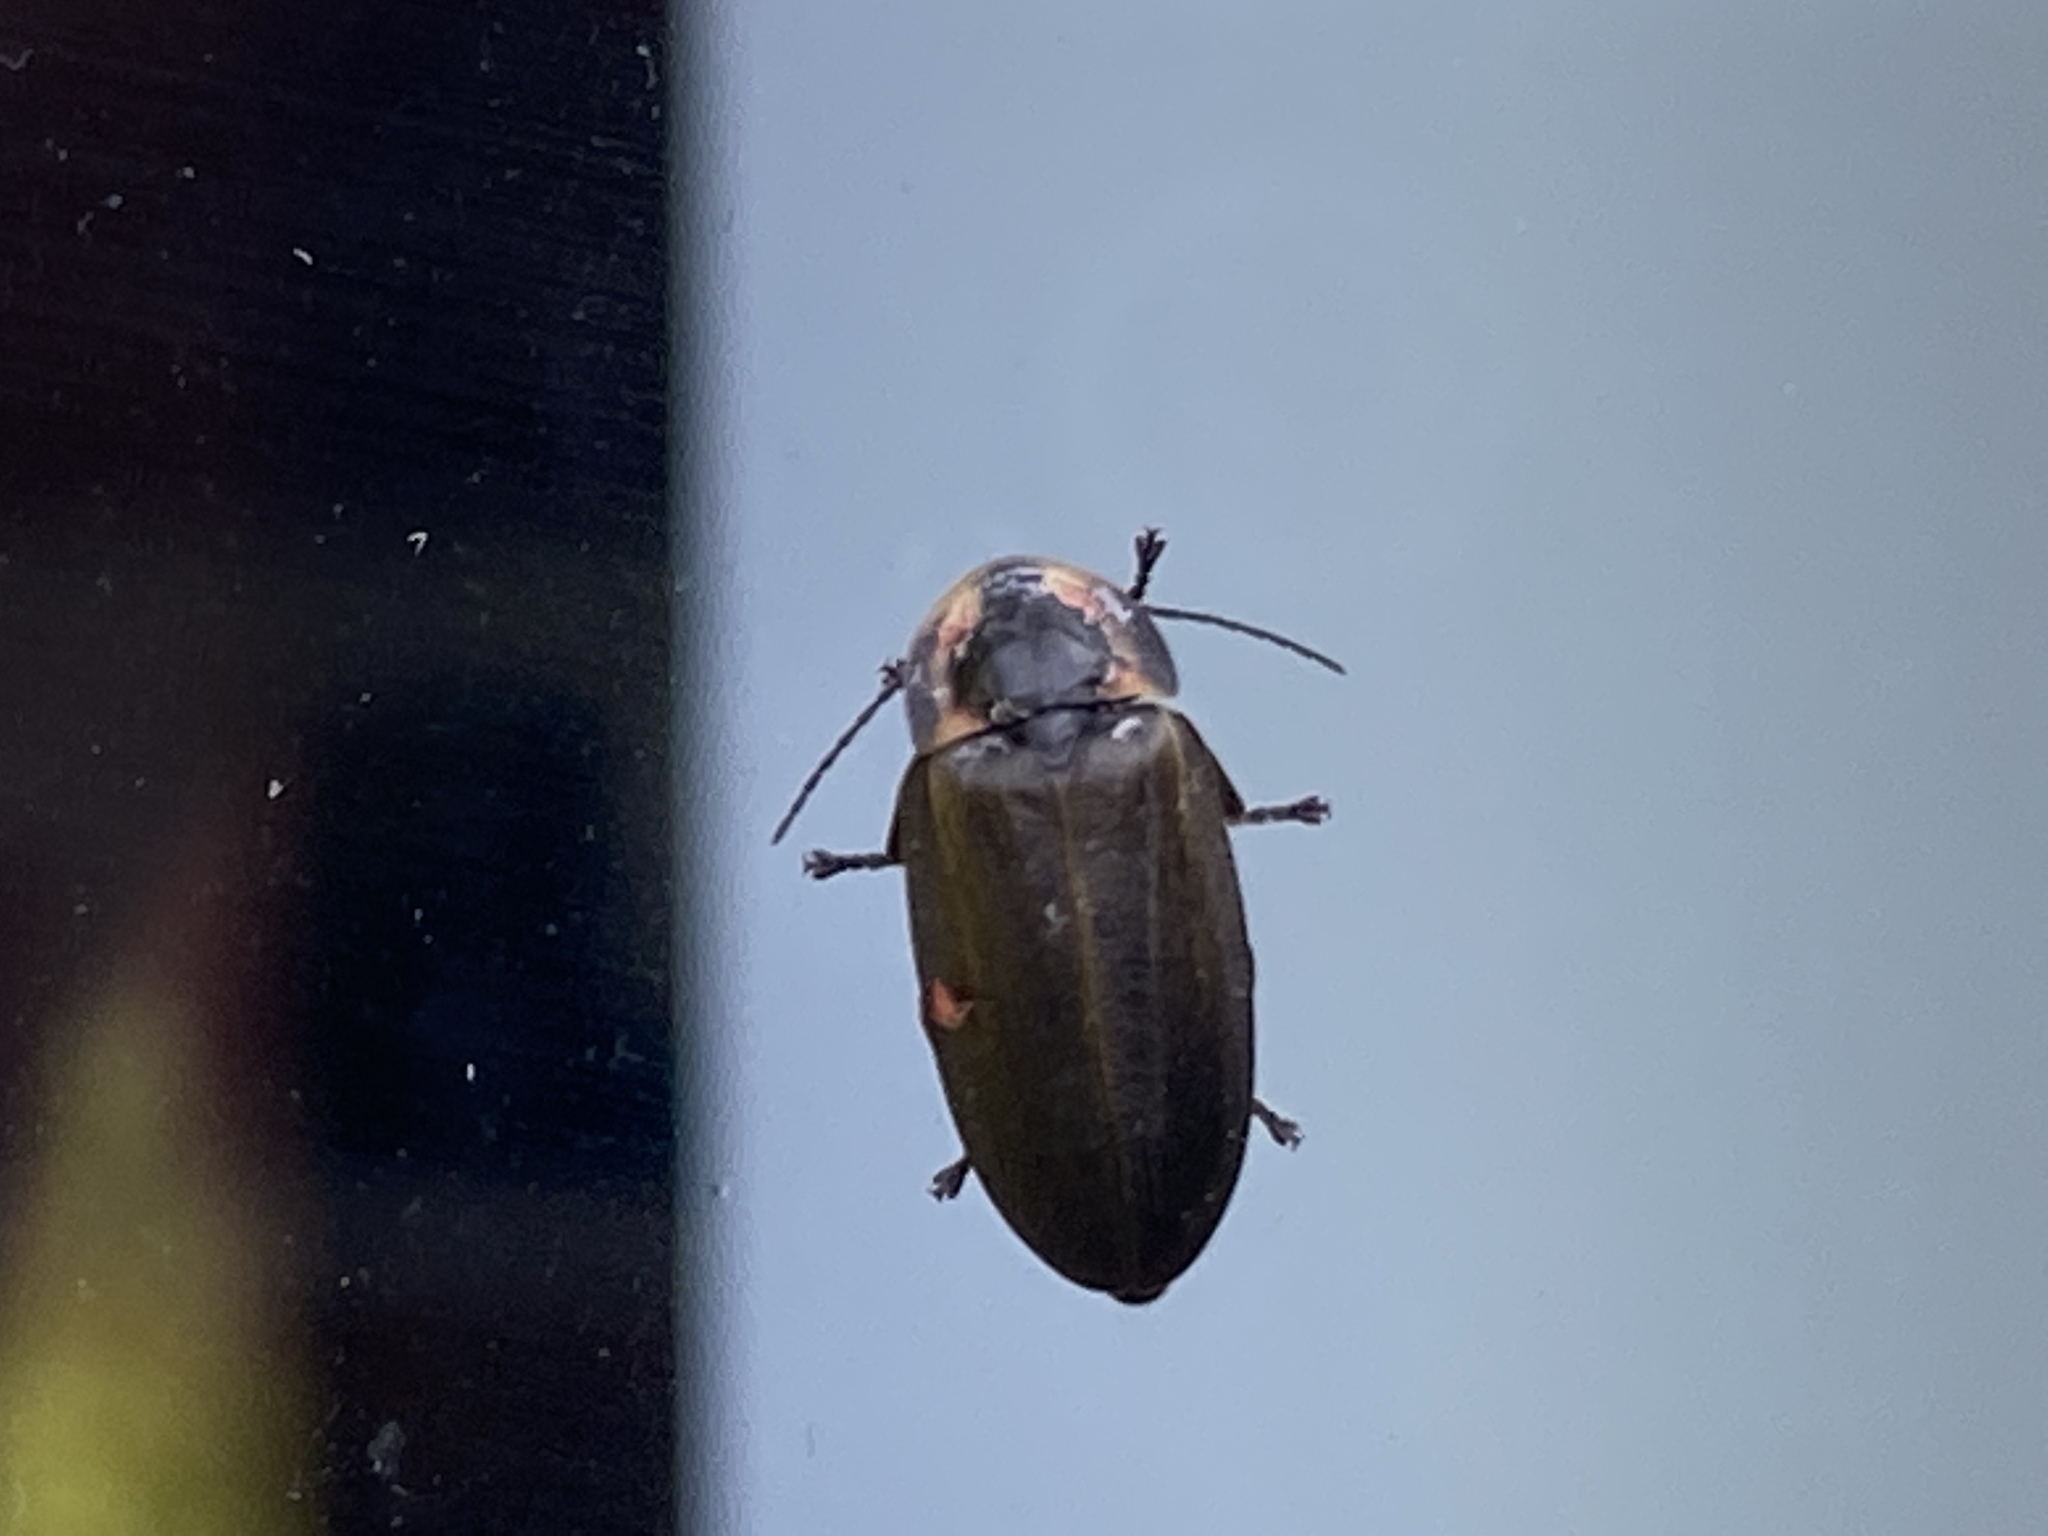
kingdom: Animalia
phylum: Arthropoda
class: Insecta
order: Coleoptera
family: Lampyridae
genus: Photinus
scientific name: Photinus corrusca
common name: Winter firefly
